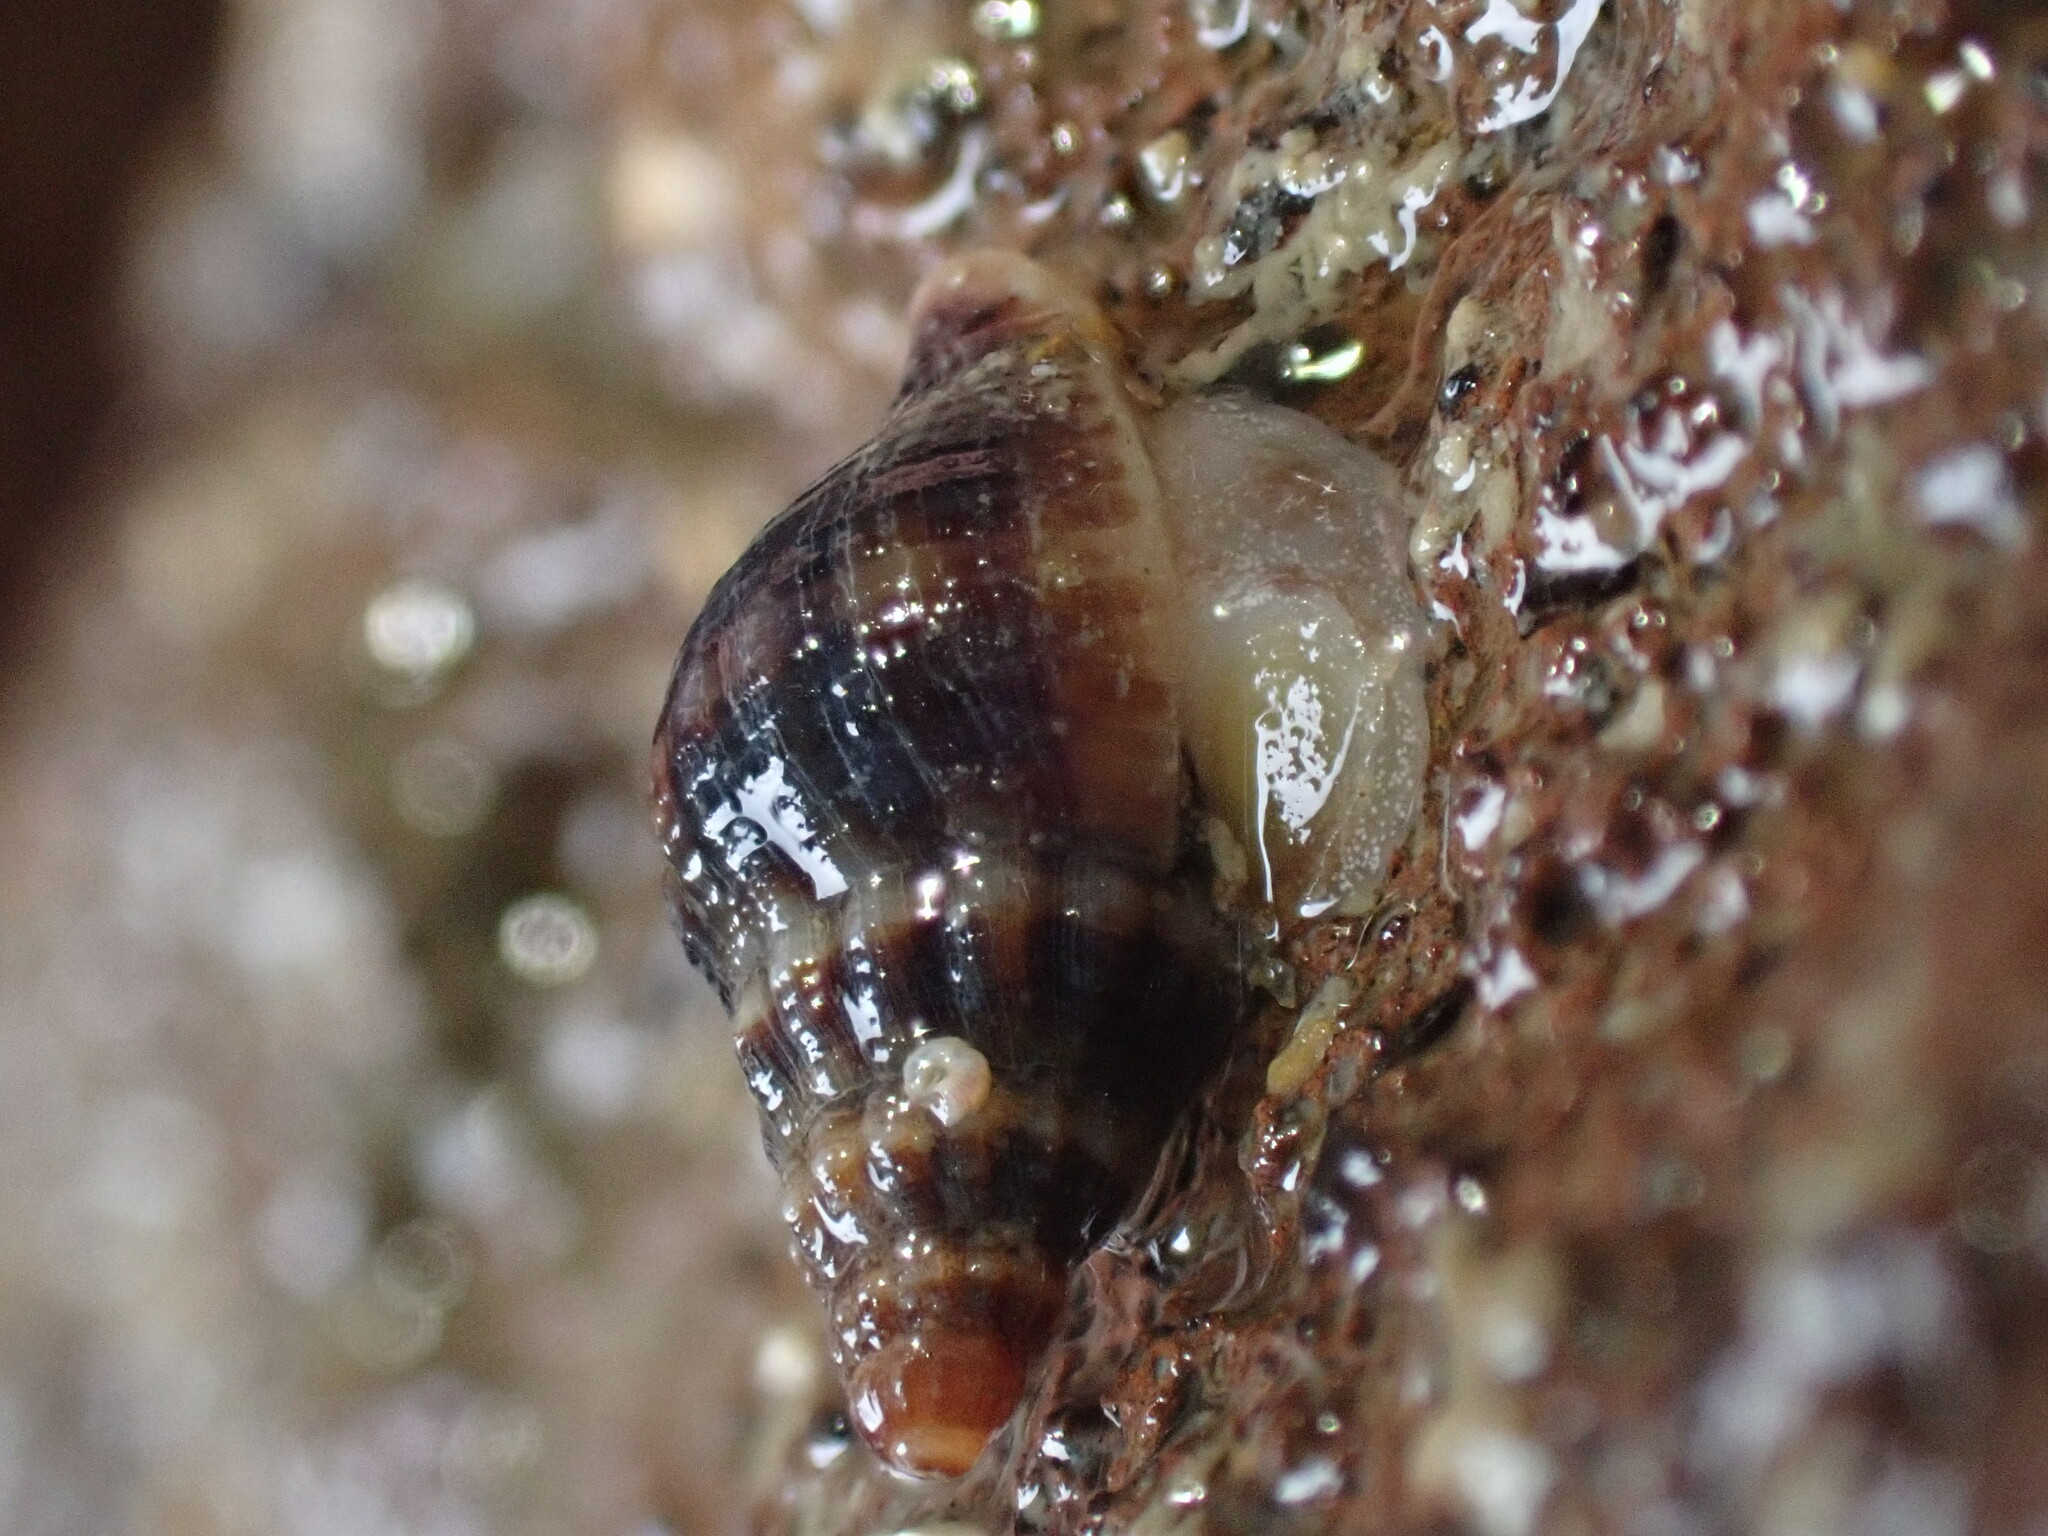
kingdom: Animalia
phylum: Mollusca
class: Gastropoda
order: Neogastropoda
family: Tudiclidae
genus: Buccinulum
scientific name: Buccinulum vittatum
